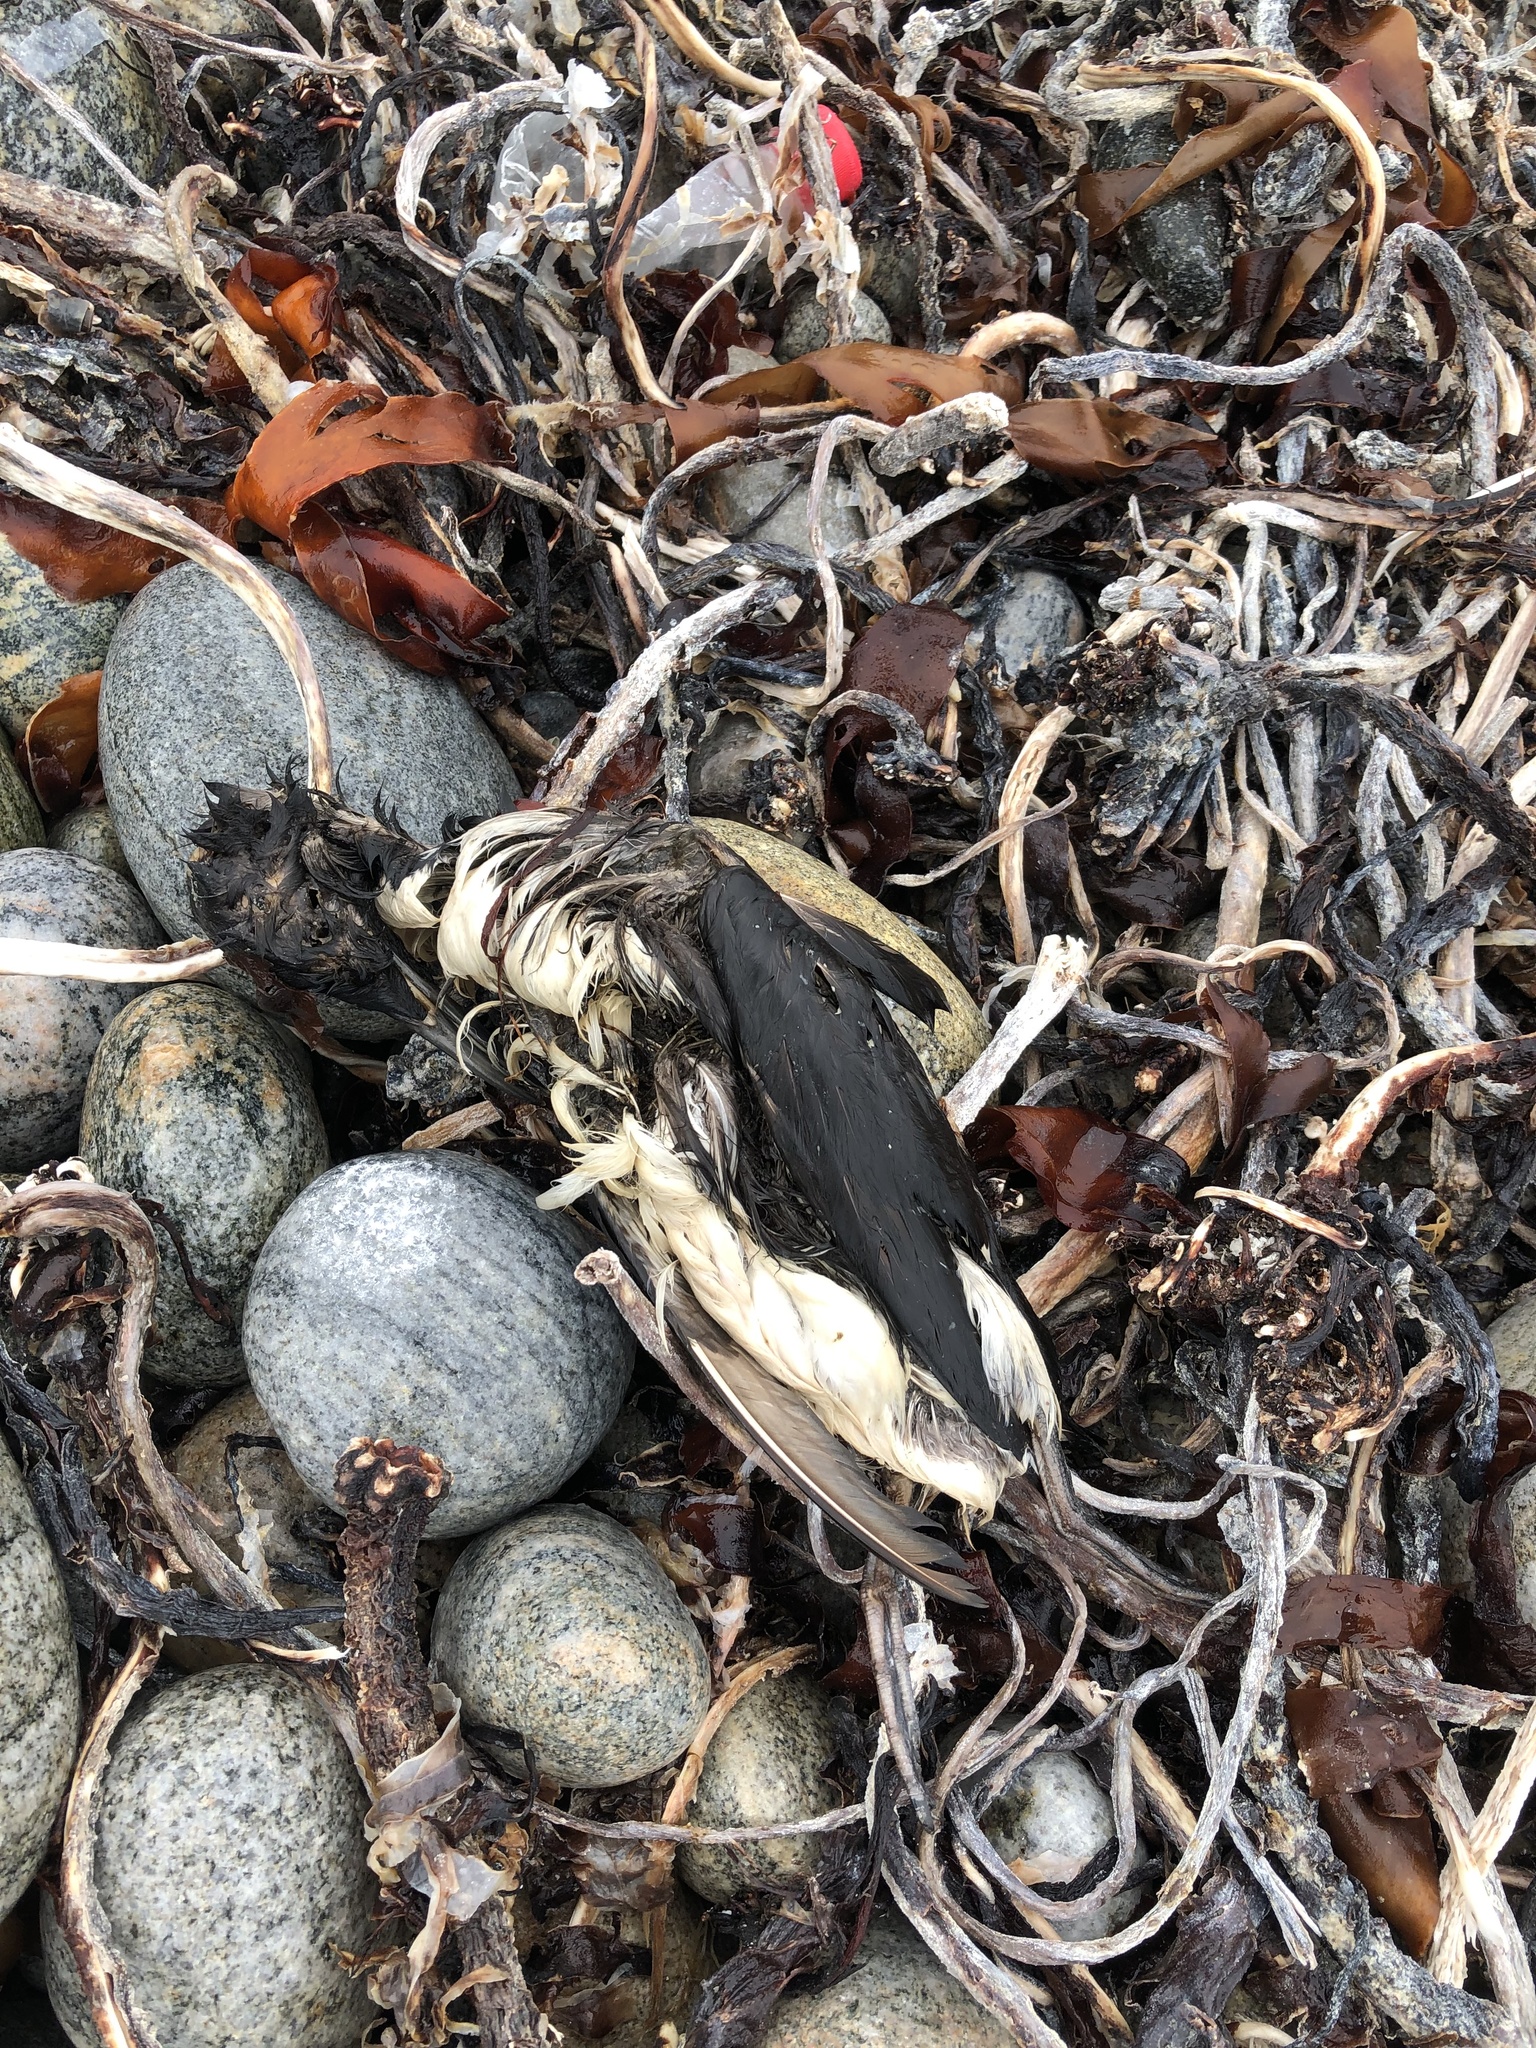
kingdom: Animalia
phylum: Chordata
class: Aves
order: Charadriiformes
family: Alcidae
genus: Uria
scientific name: Uria aalge
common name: Common murre
